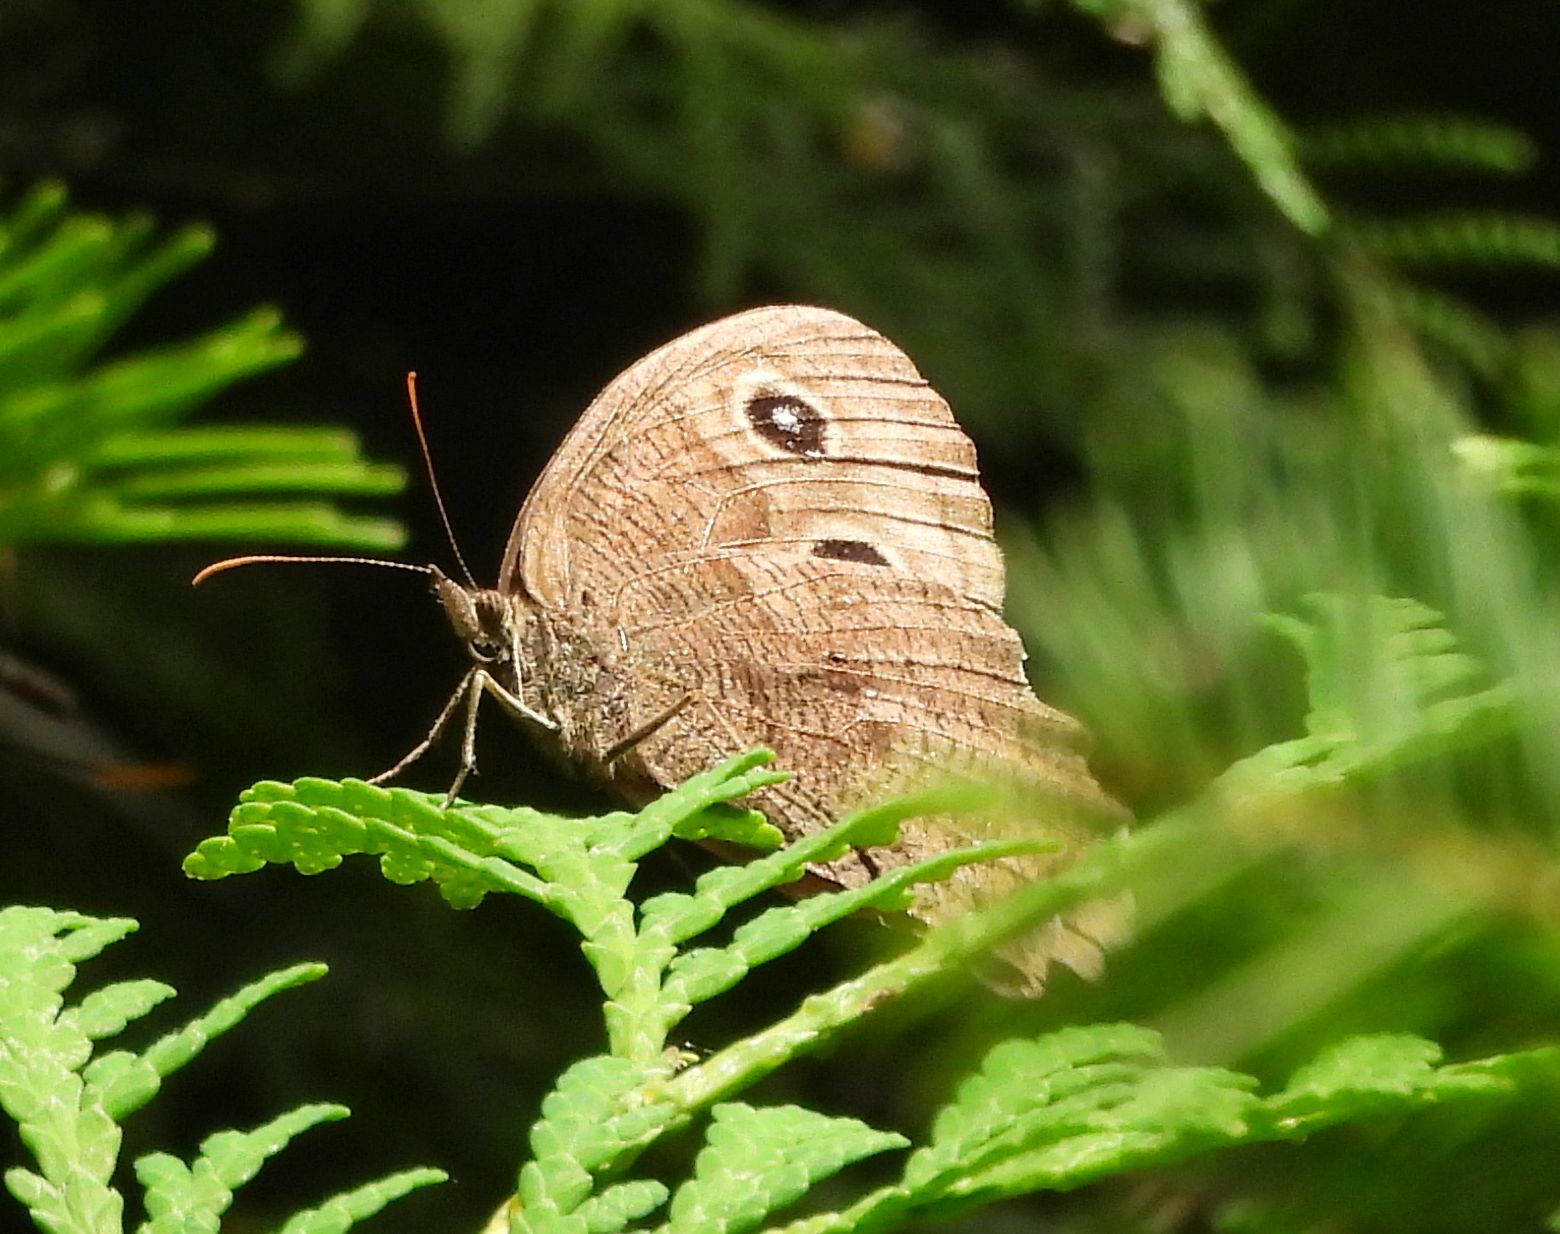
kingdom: Animalia
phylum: Arthropoda
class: Insecta
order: Lepidoptera
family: Nymphalidae
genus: Cercyonis
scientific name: Cercyonis pegala
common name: Common wood-nymph
